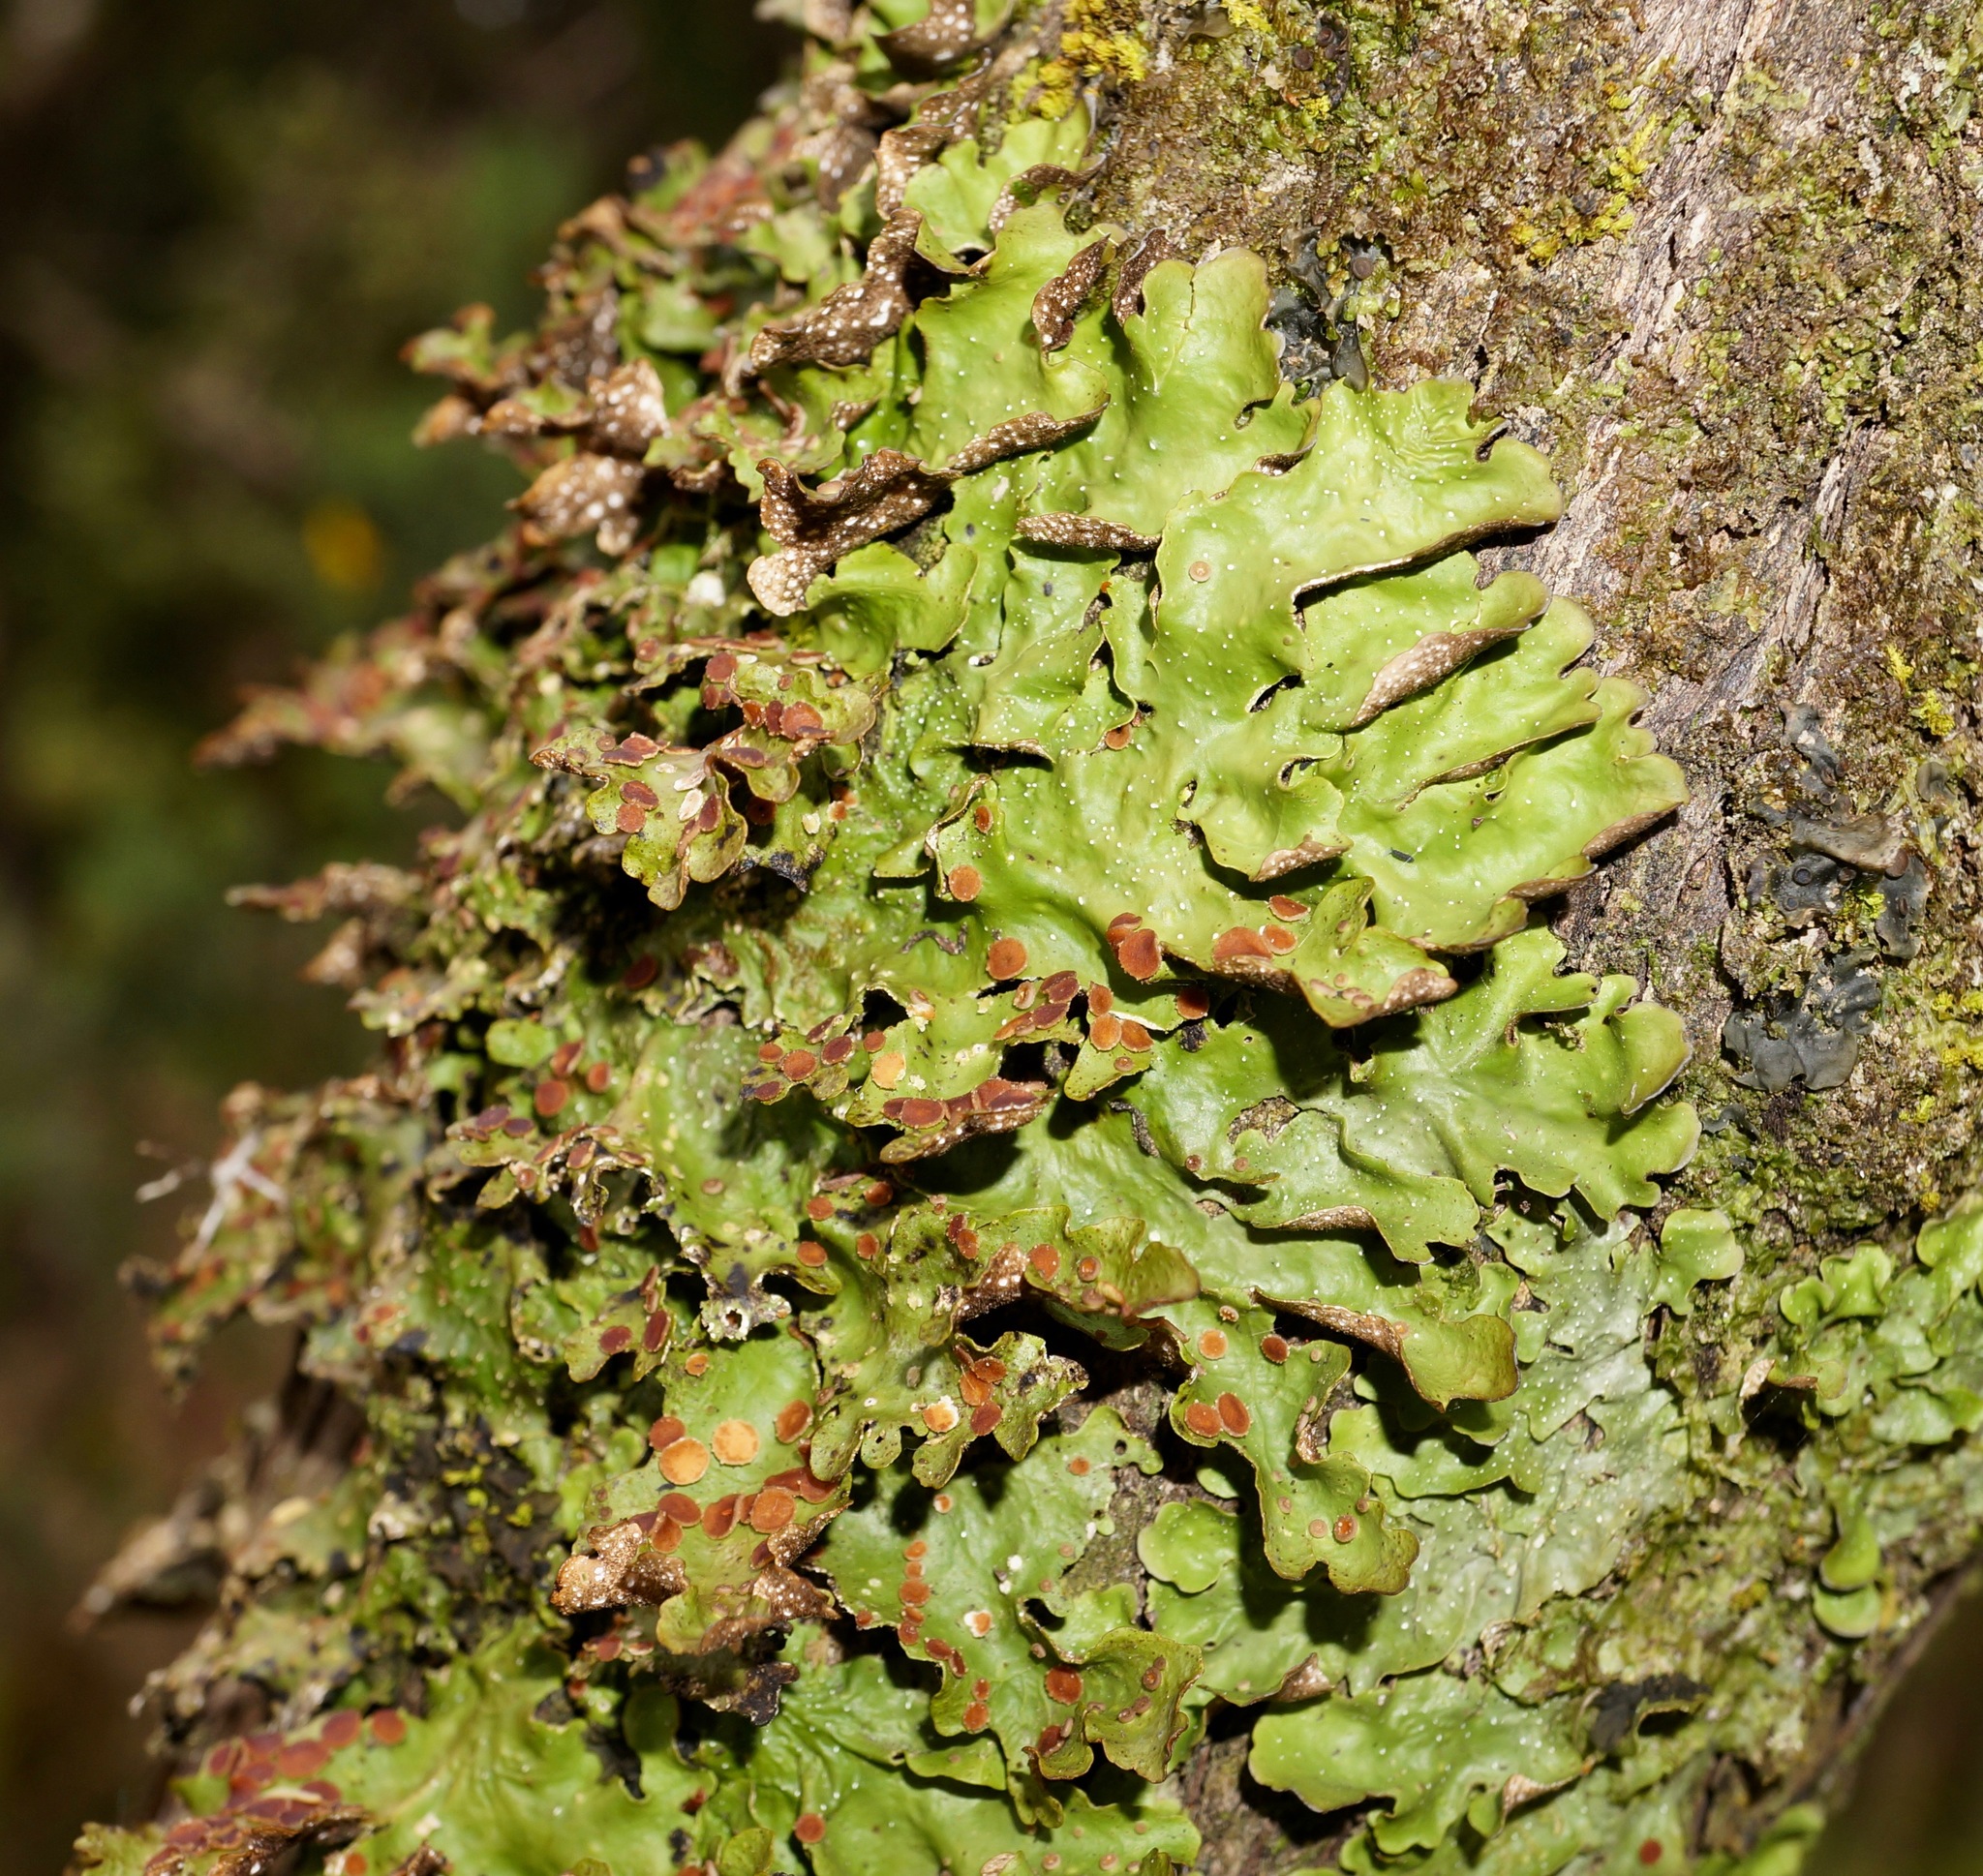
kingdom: Fungi
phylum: Ascomycota
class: Lecanoromycetes
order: Peltigerales
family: Lobariaceae
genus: Pseudocyphellaria
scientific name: Pseudocyphellaria lividofusca
